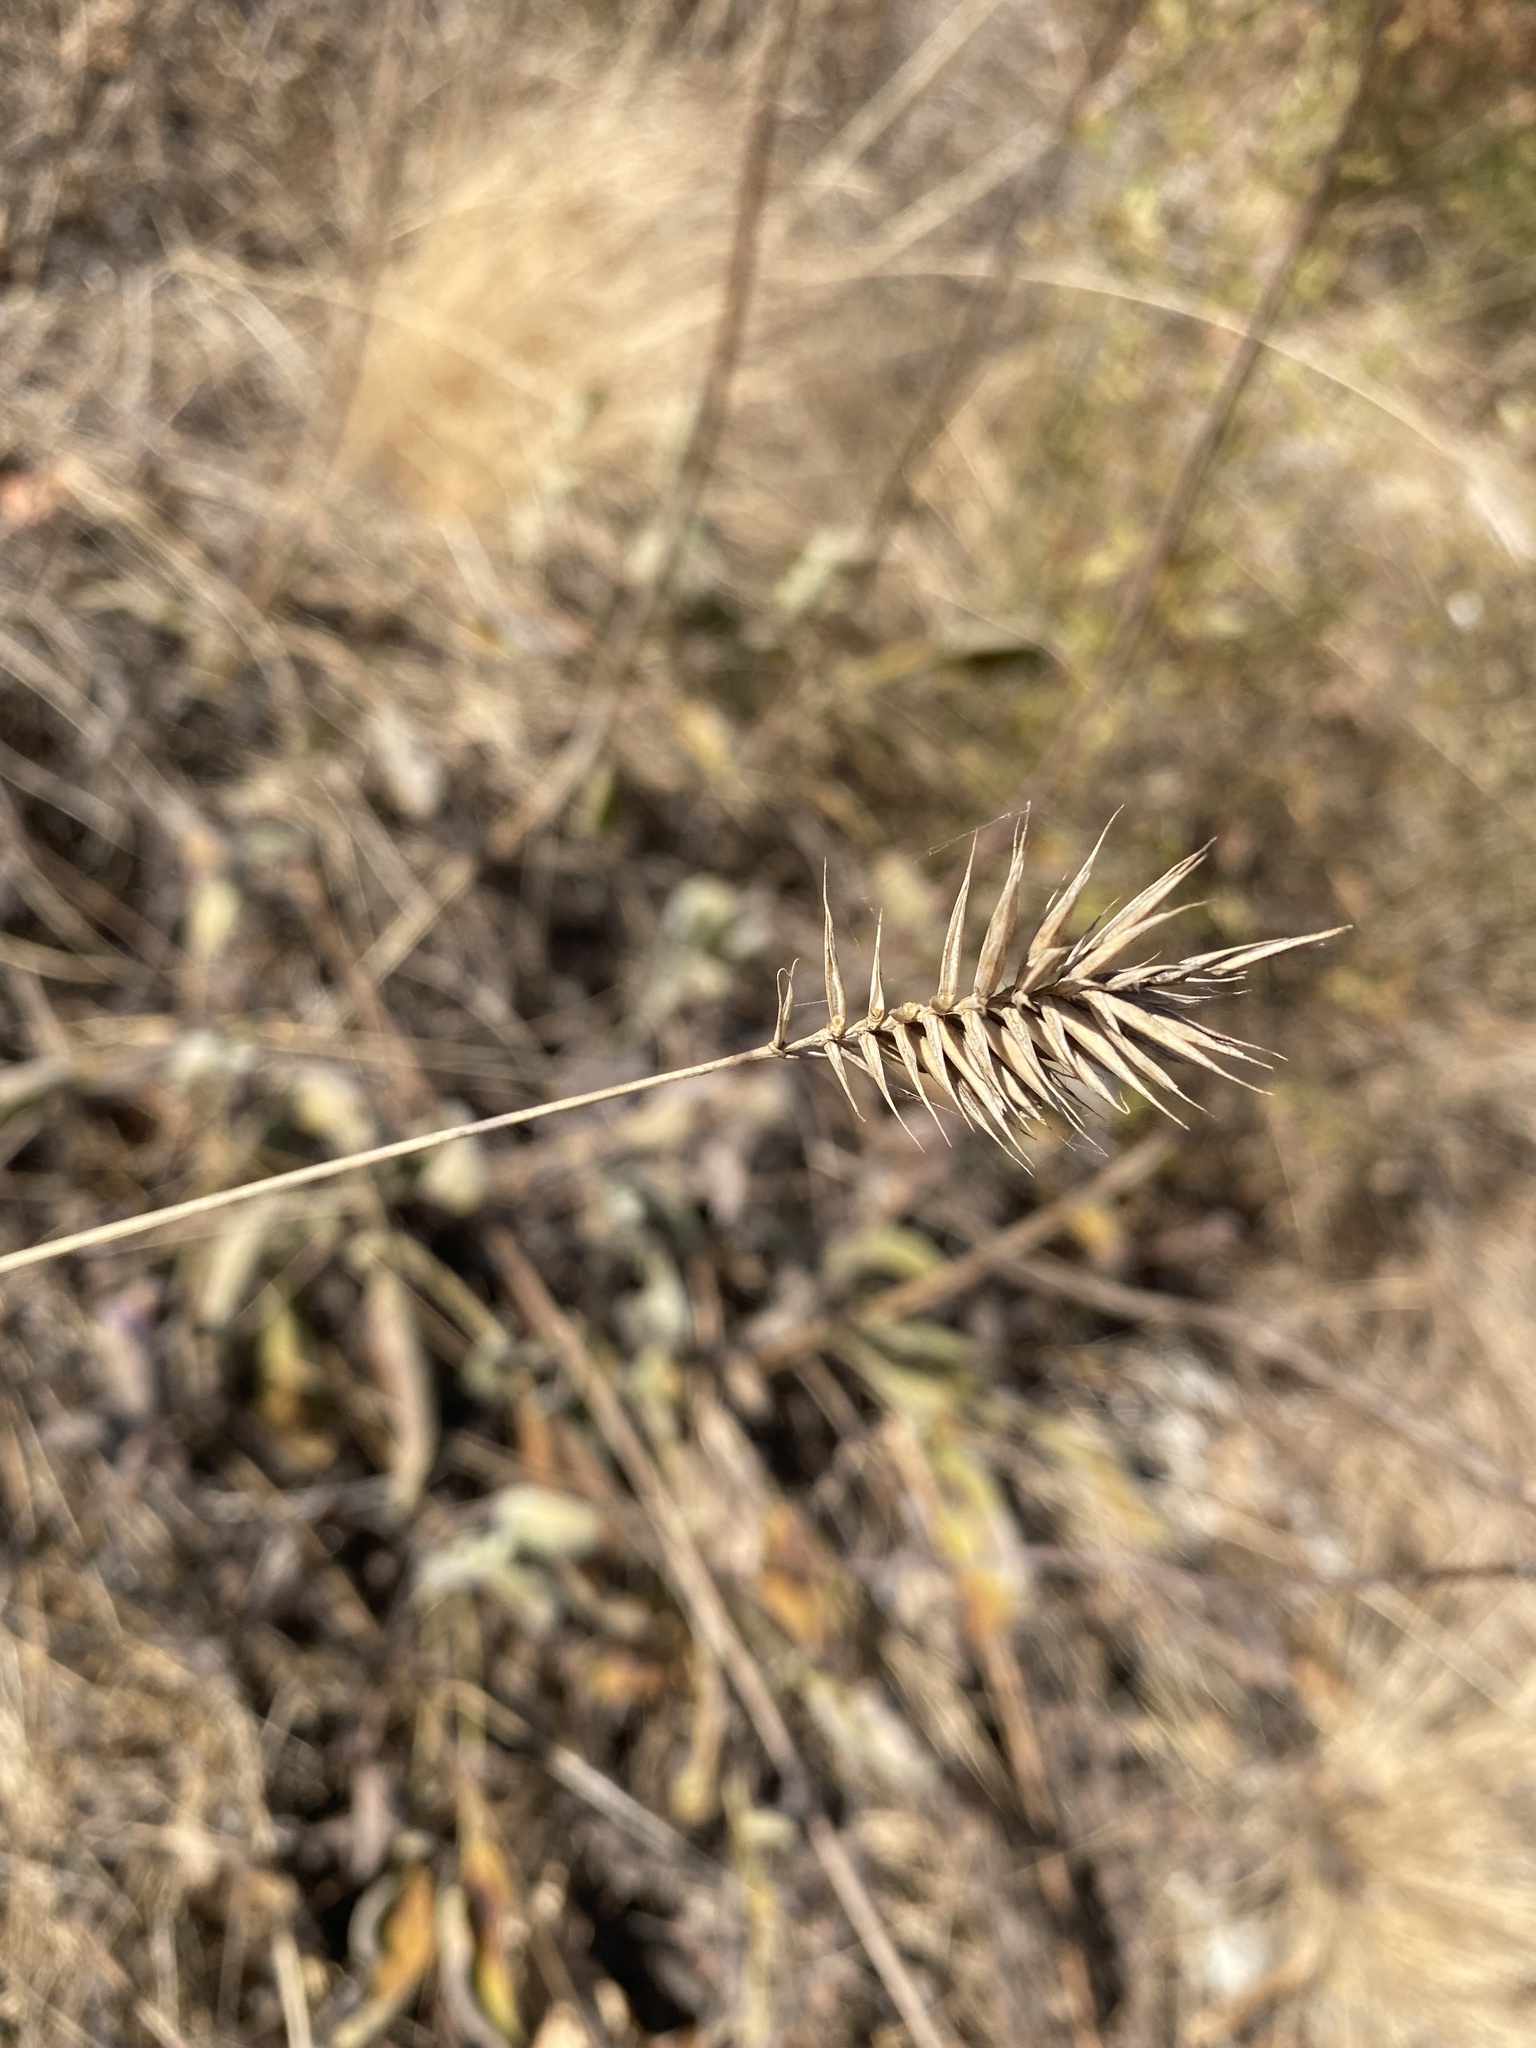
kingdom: Plantae
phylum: Tracheophyta
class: Liliopsida
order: Poales
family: Poaceae
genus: Agropyron
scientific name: Agropyron cristatum
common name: Crested wheatgrass
